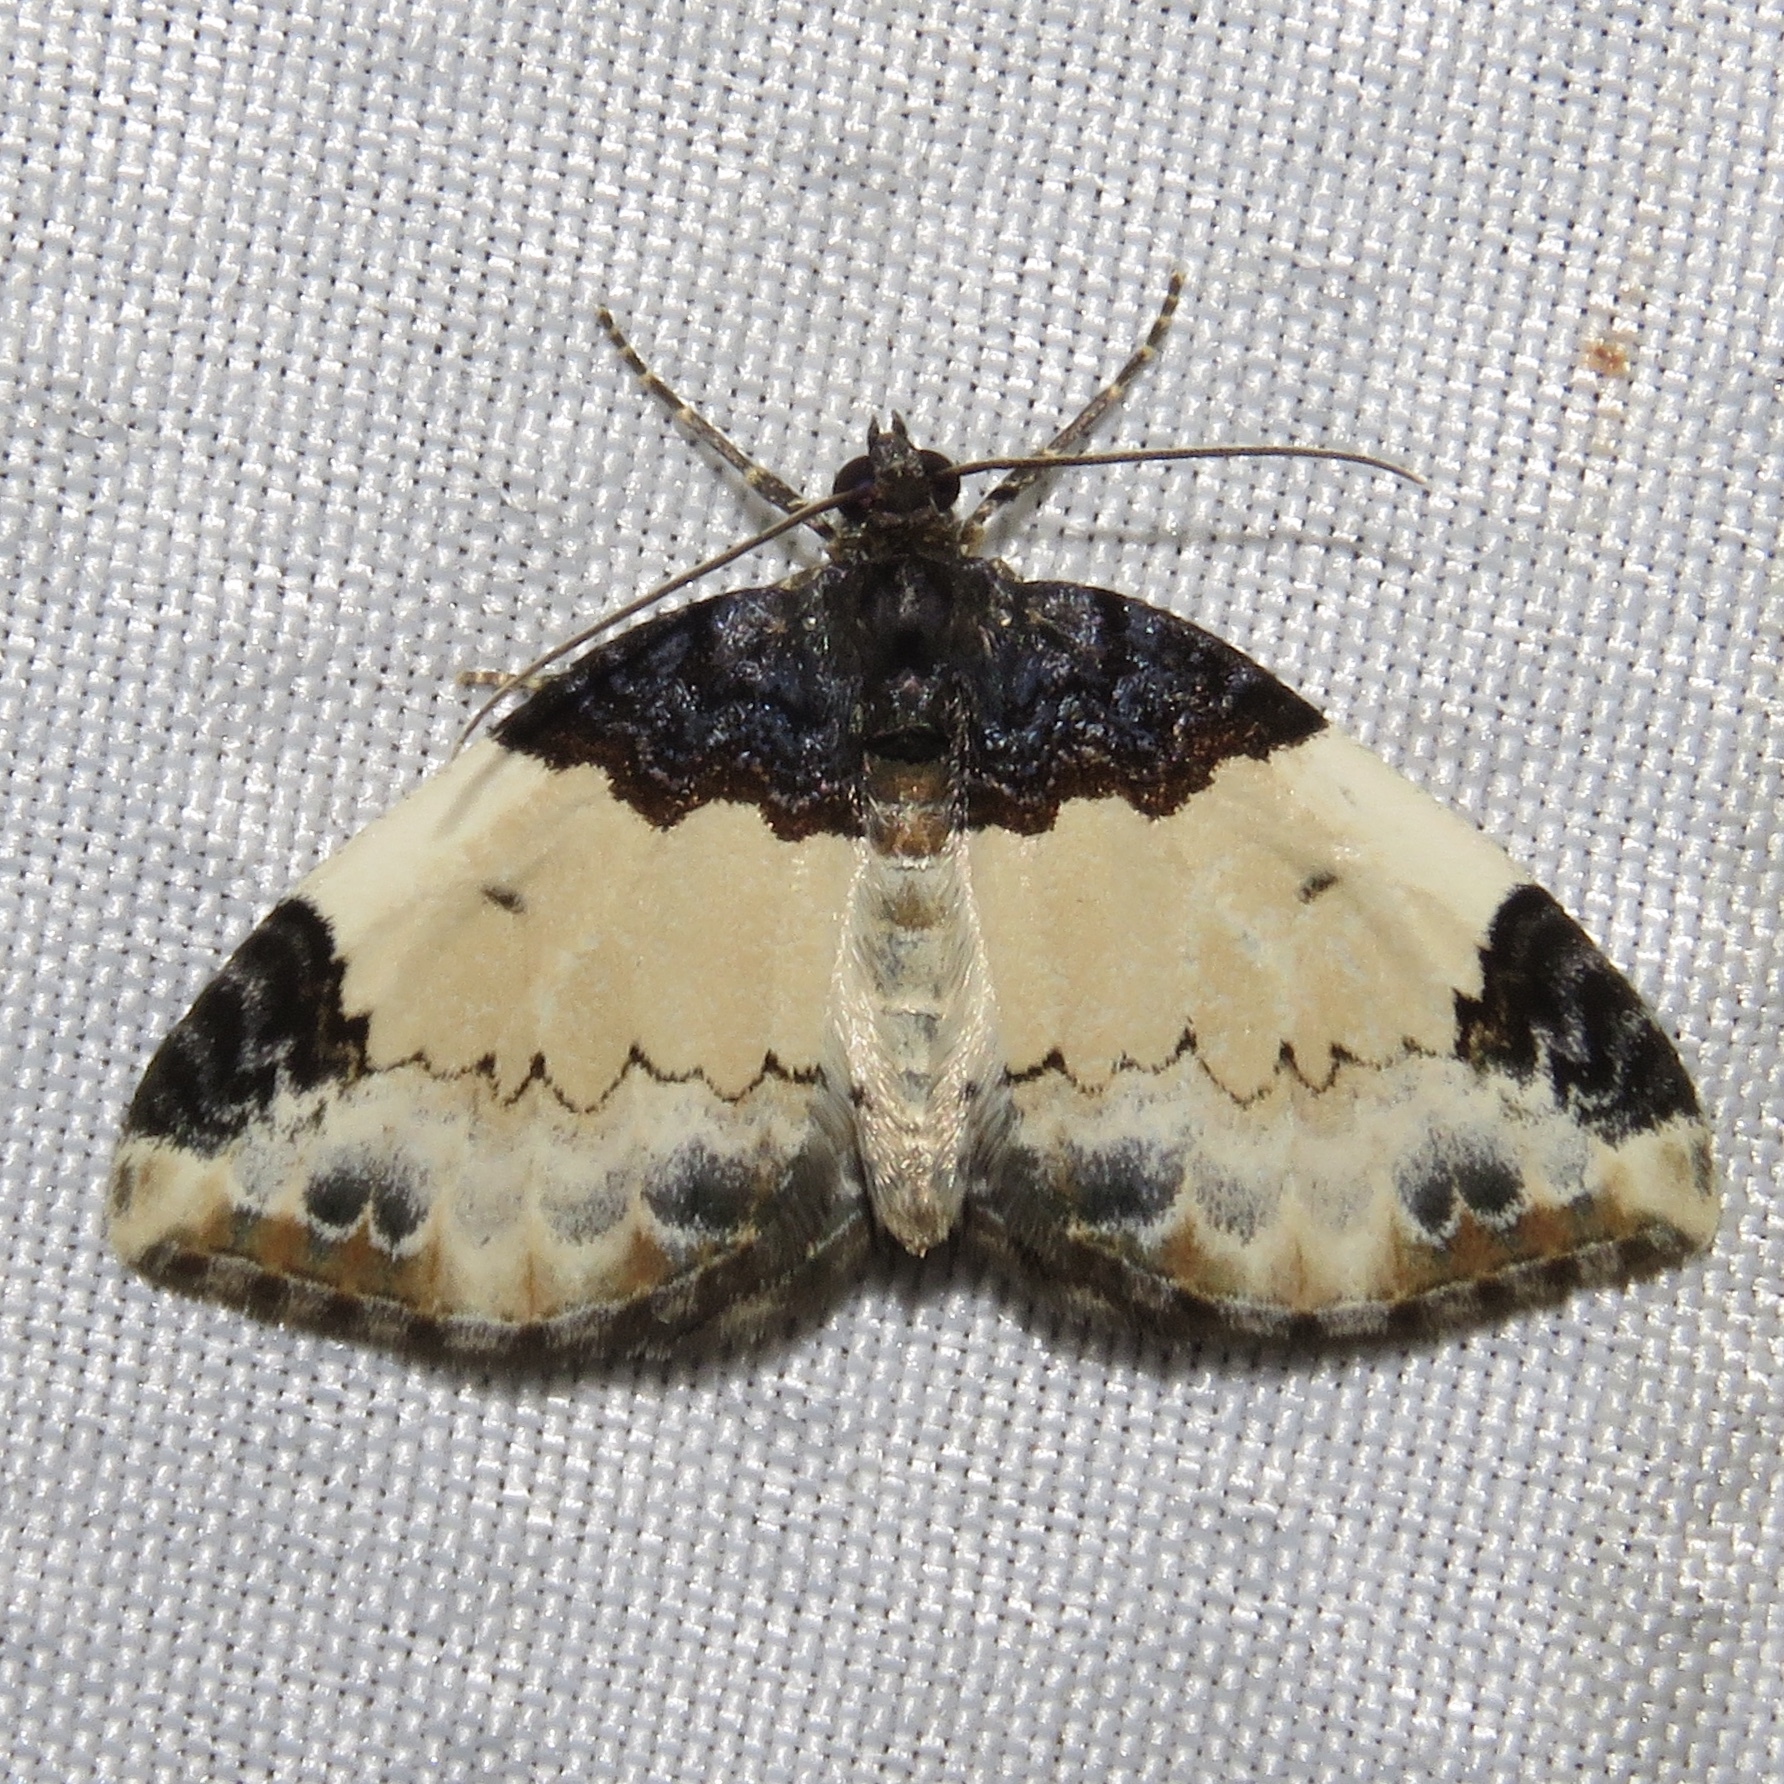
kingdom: Animalia
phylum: Arthropoda
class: Insecta
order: Lepidoptera
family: Geometridae
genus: Mesoleuca
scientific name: Mesoleuca ruficillata
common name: White-ribboned carpet moth
